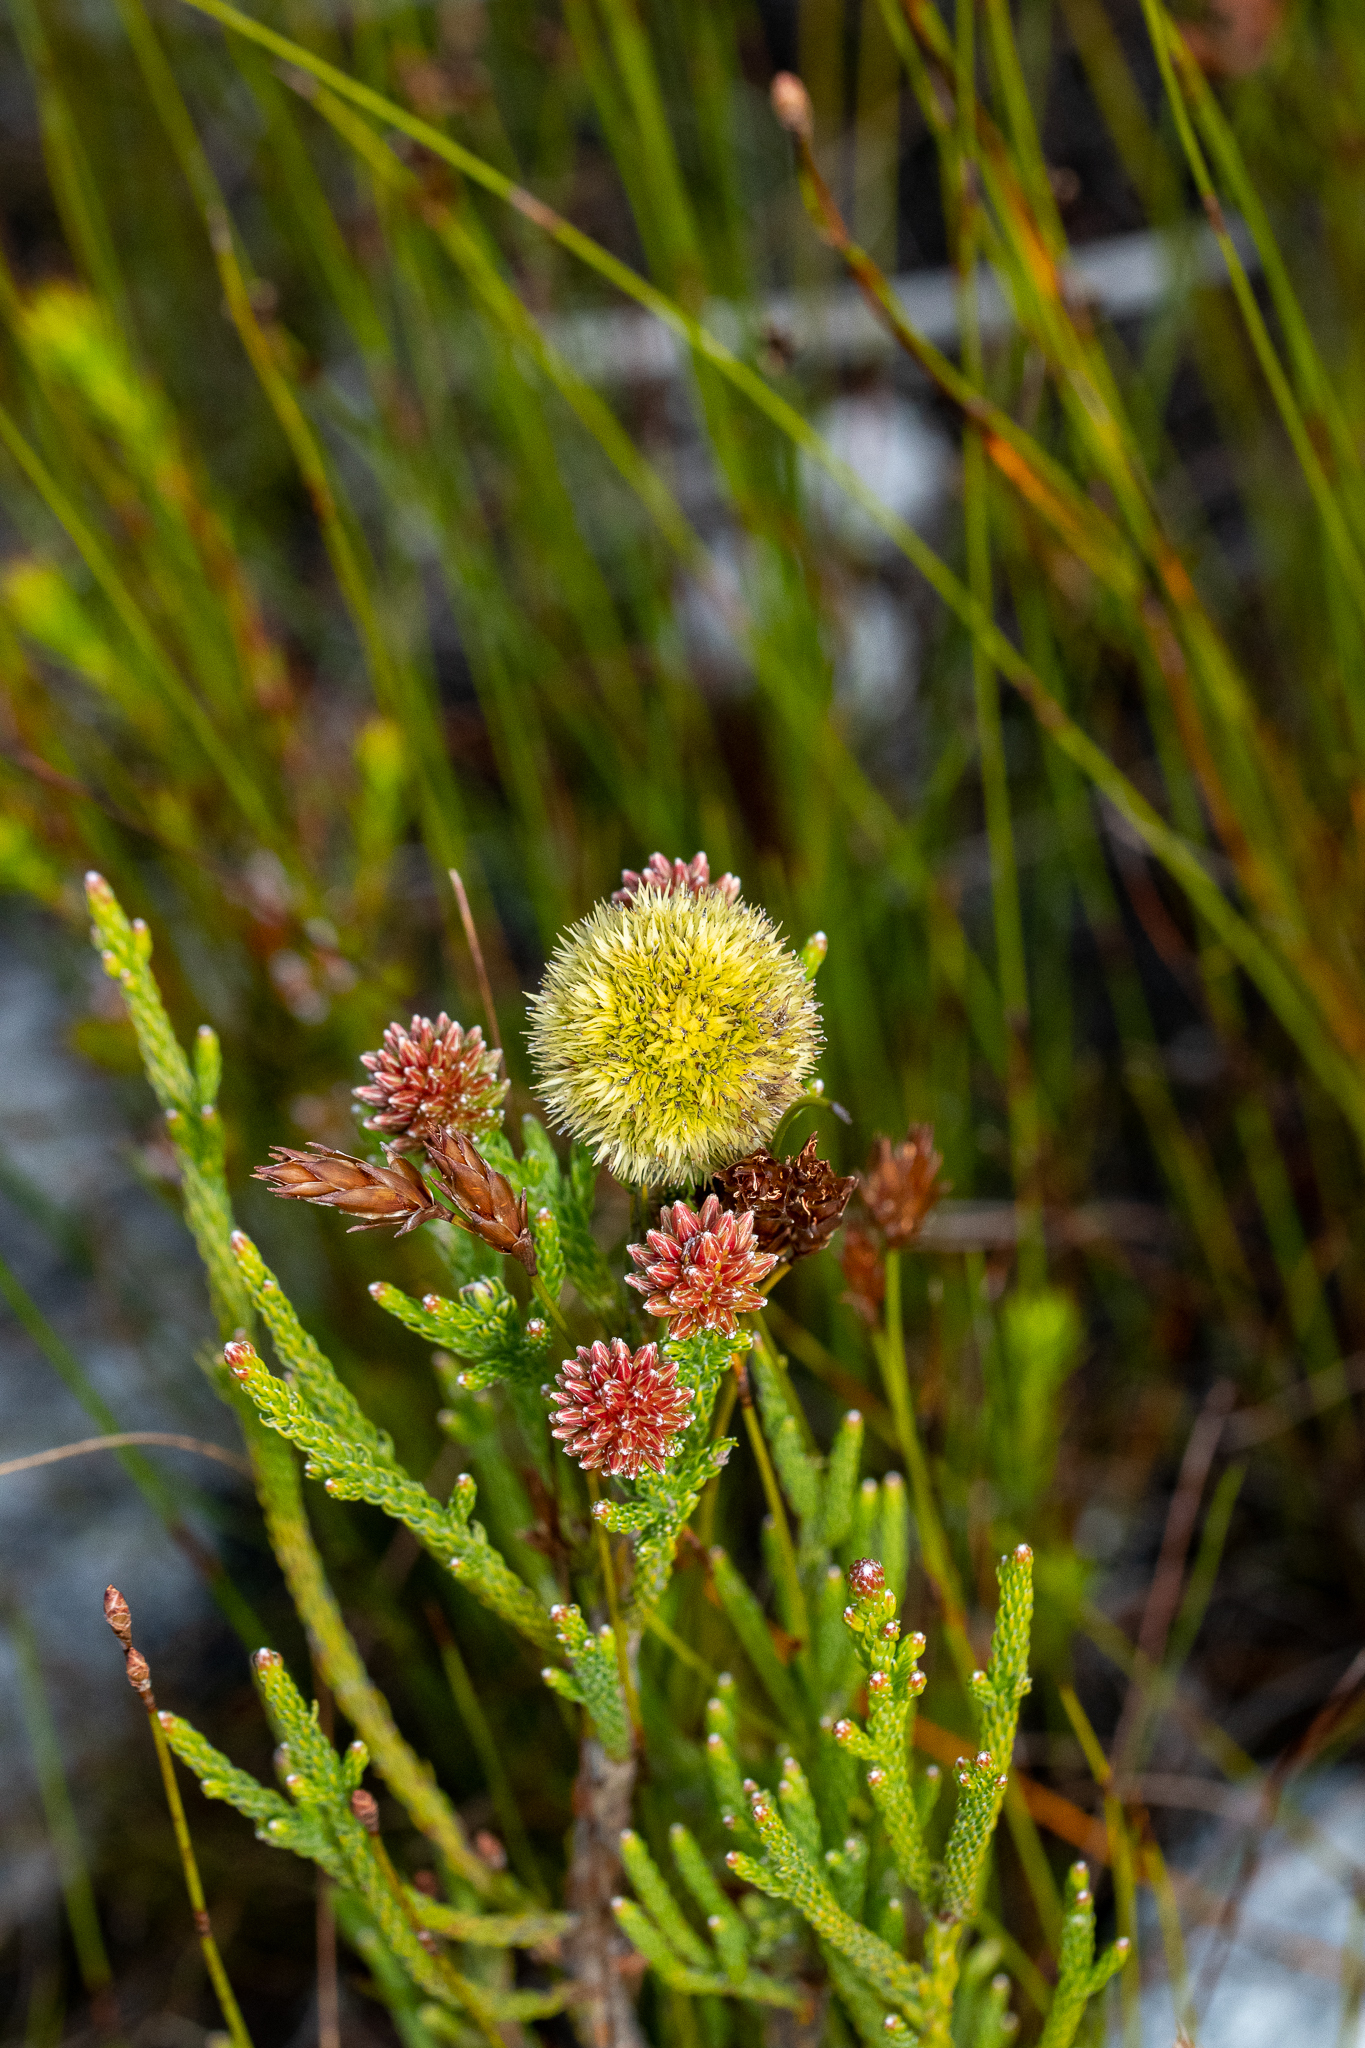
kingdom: Plantae
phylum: Tracheophyta
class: Magnoliopsida
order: Bruniales
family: Bruniaceae
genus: Brunia
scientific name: Brunia fragarioides
